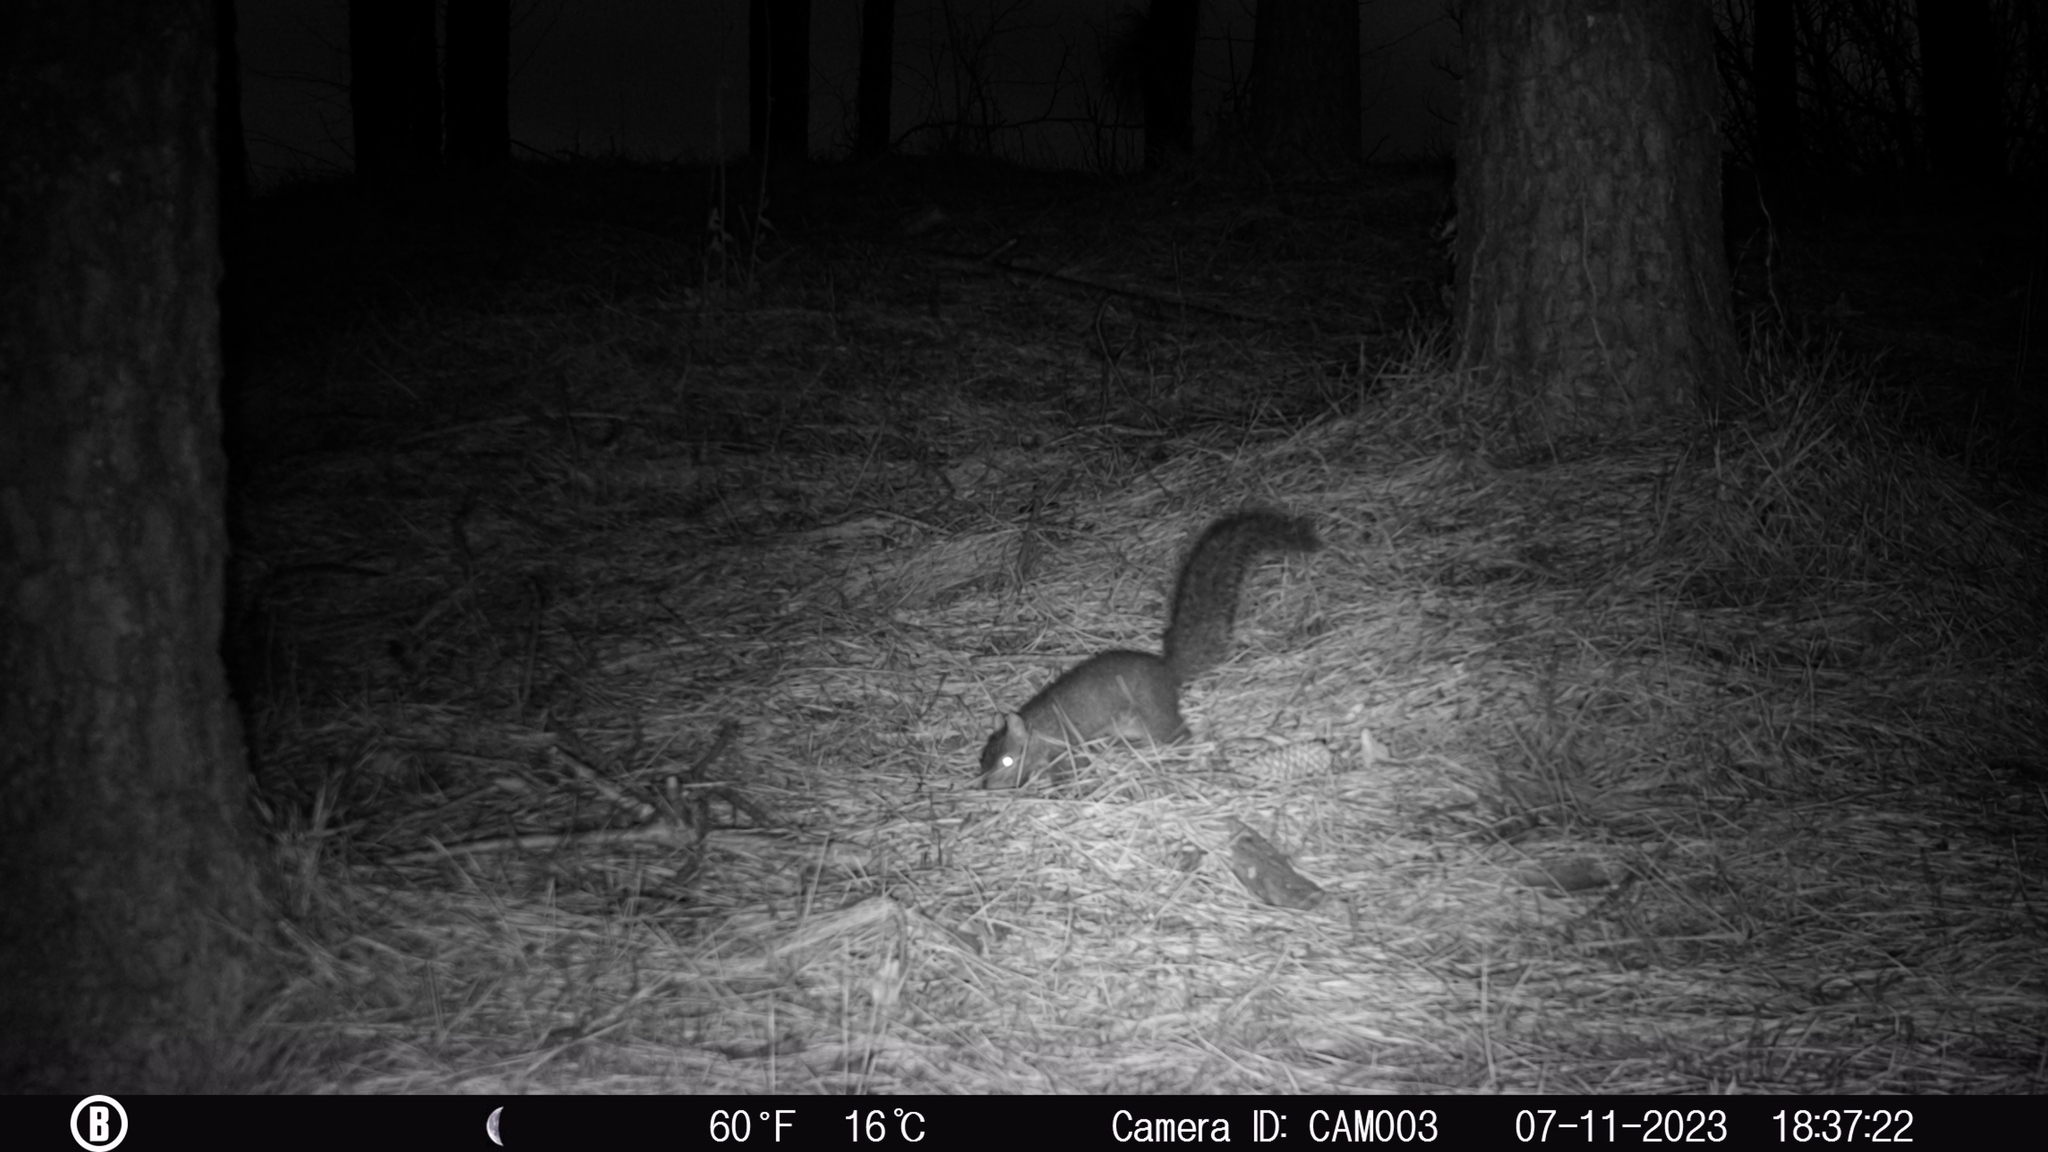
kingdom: Animalia
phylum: Chordata
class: Mammalia
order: Rodentia
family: Sciuridae
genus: Sciurus
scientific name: Sciurus carolinensis
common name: Eastern gray squirrel
